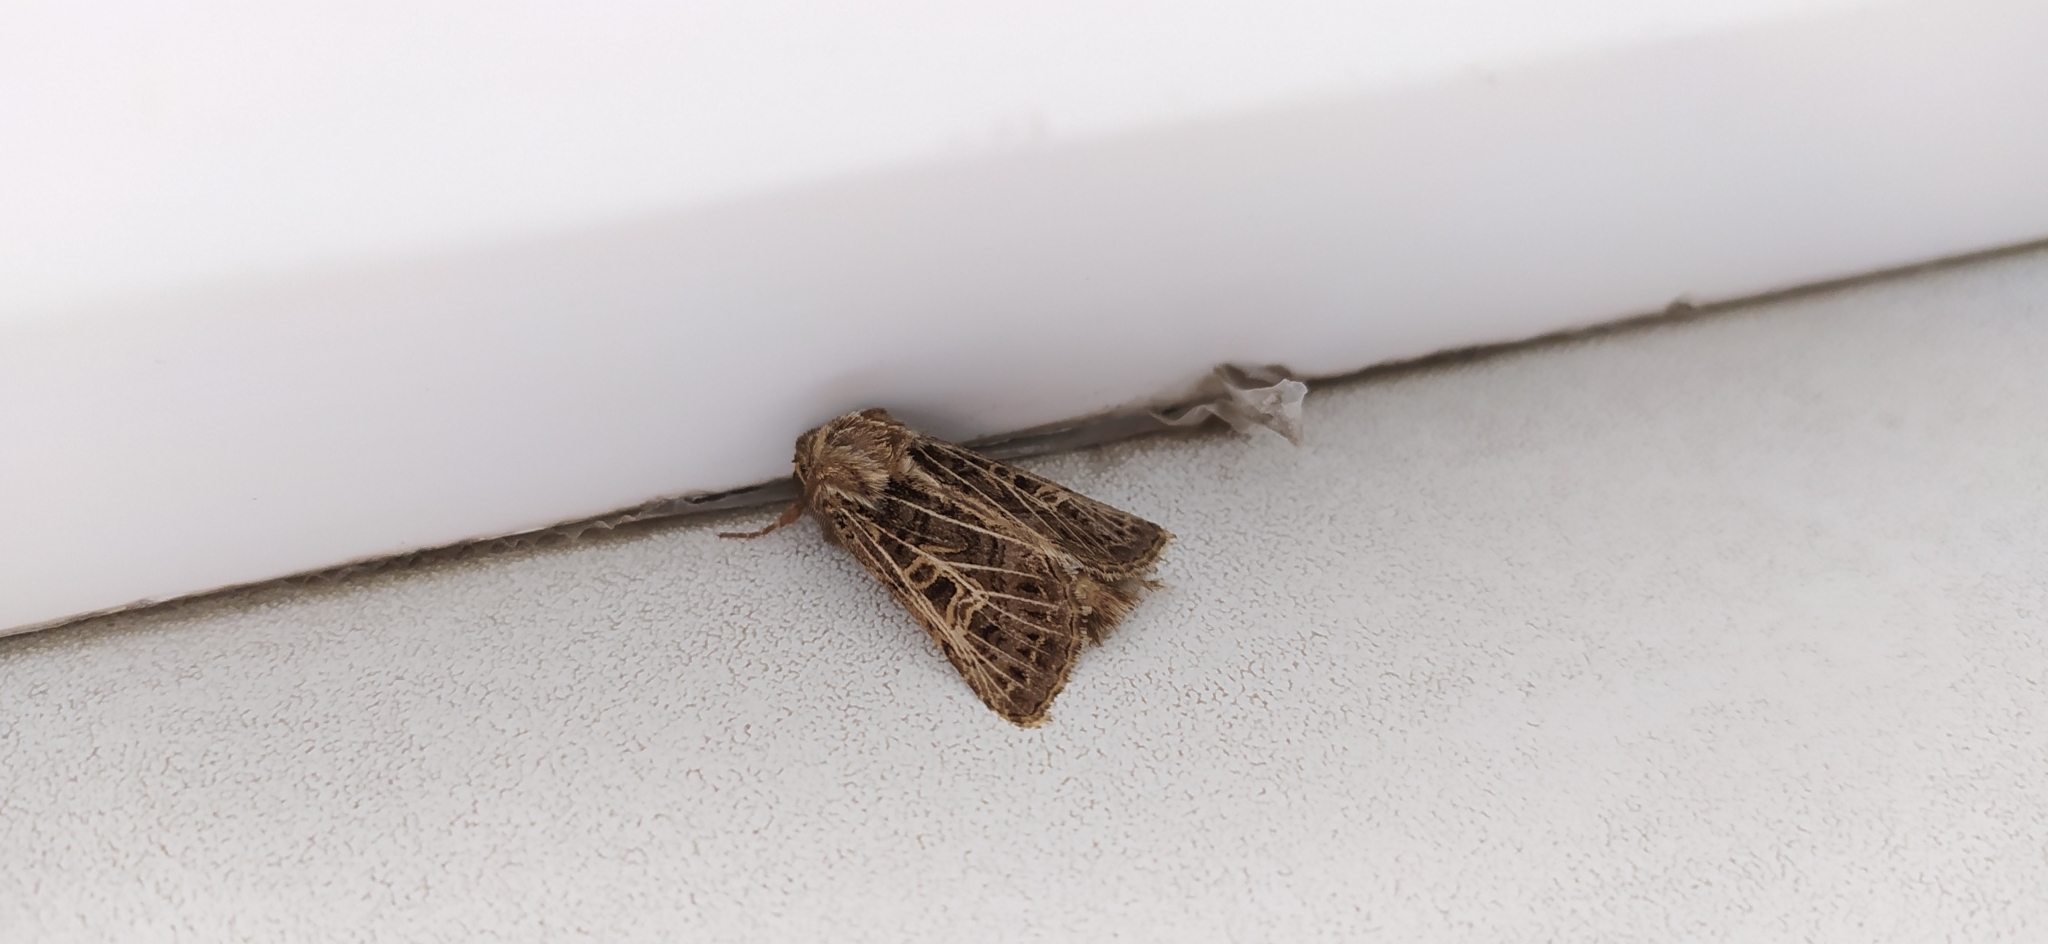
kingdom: Animalia
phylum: Arthropoda
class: Insecta
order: Lepidoptera
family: Noctuidae
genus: Tholera
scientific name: Tholera decimalis
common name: Feathered gothic
